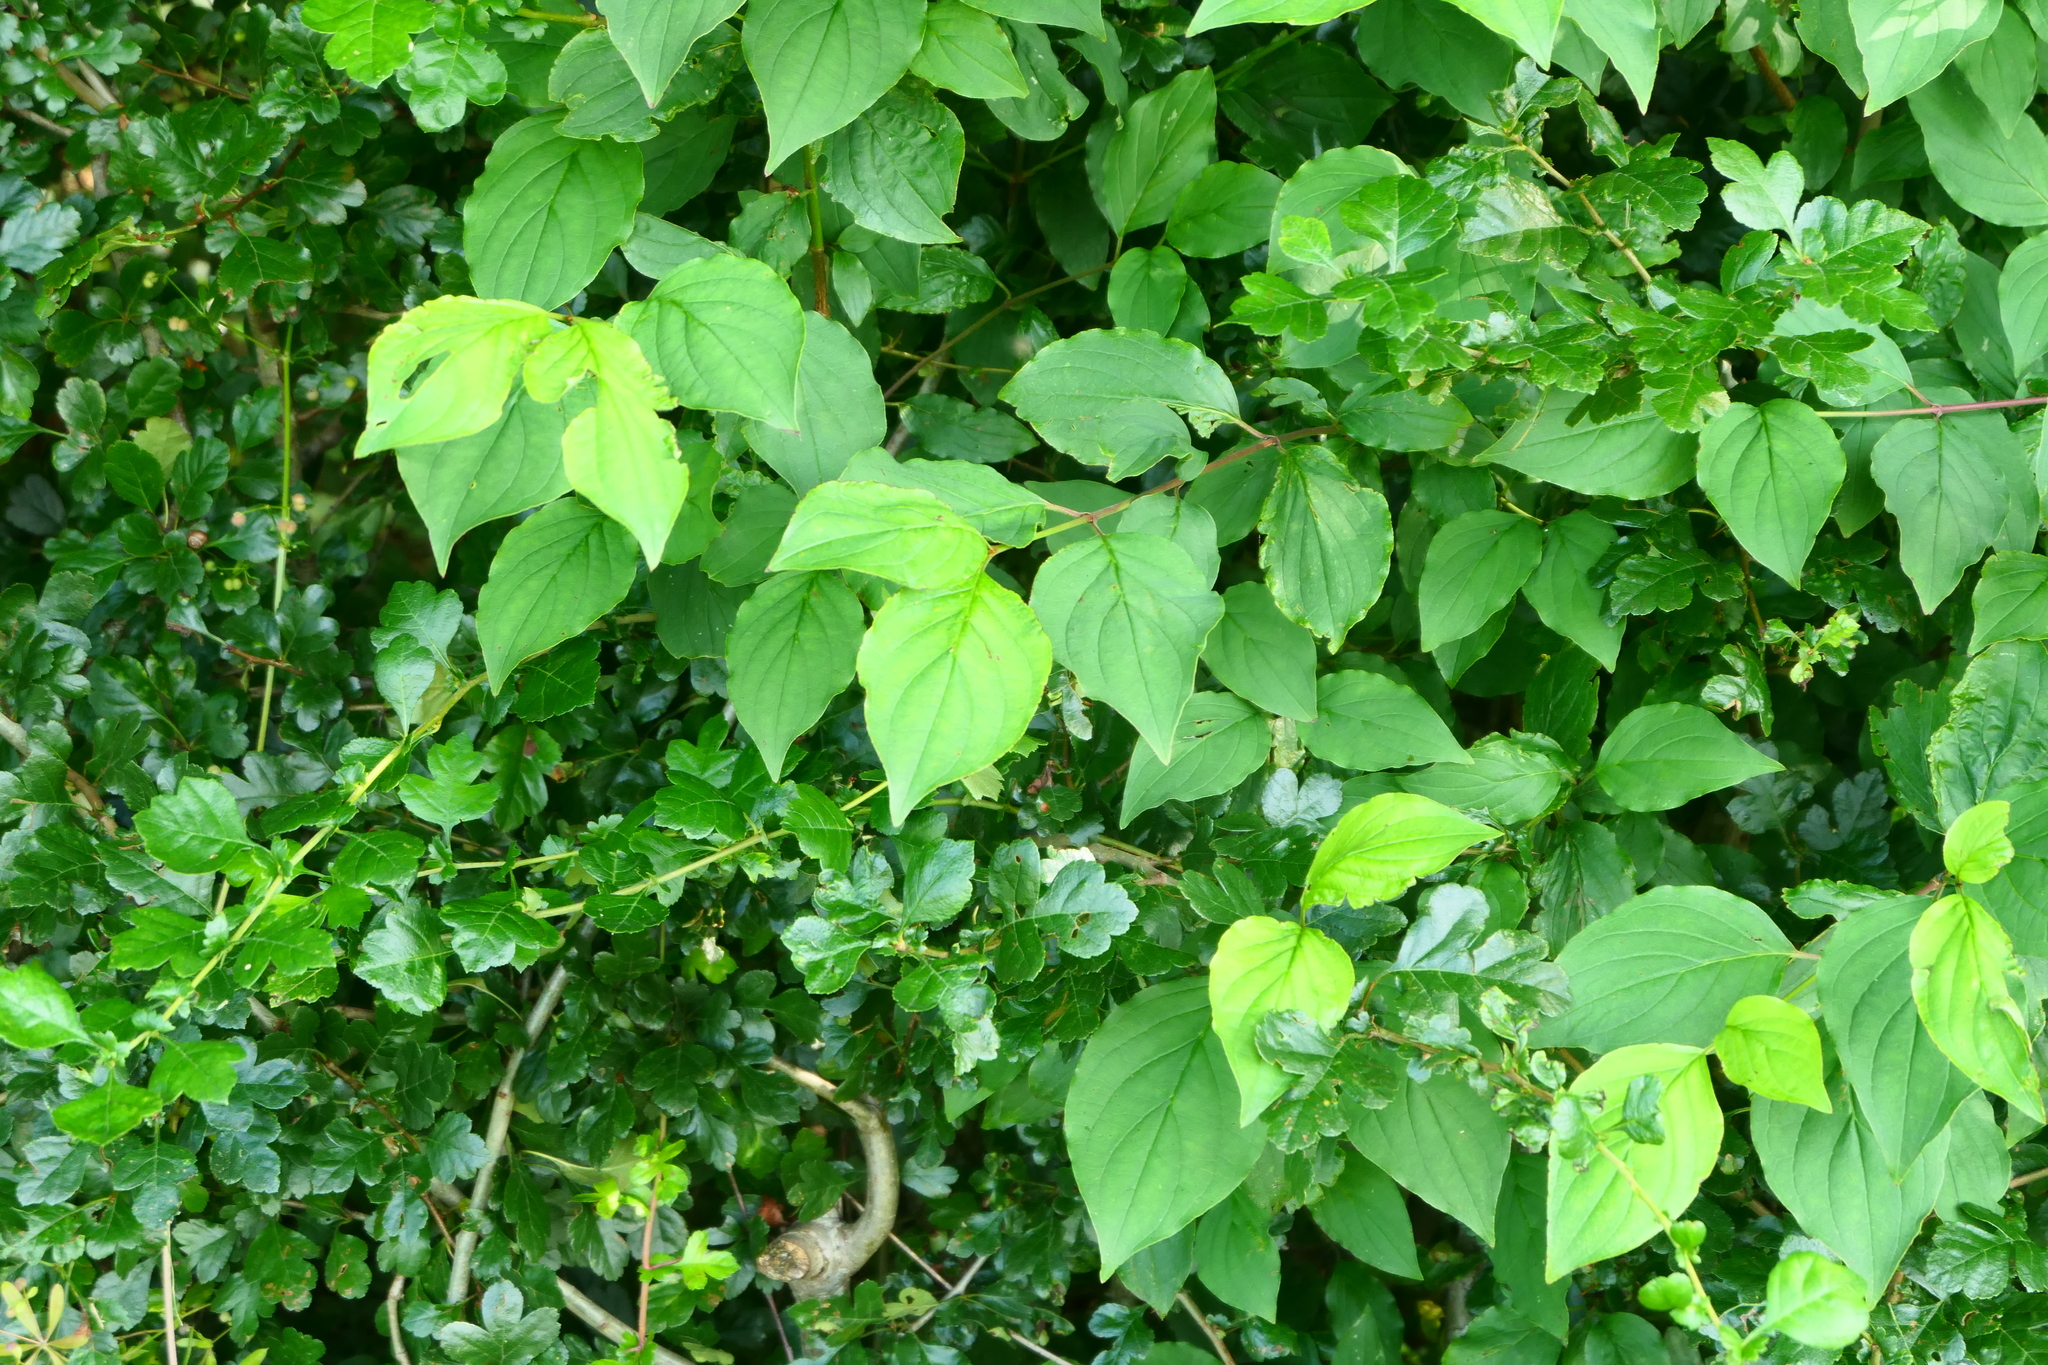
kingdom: Plantae
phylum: Tracheophyta
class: Magnoliopsida
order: Cornales
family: Cornaceae
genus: Cornus
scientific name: Cornus sanguinea
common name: Dogwood
